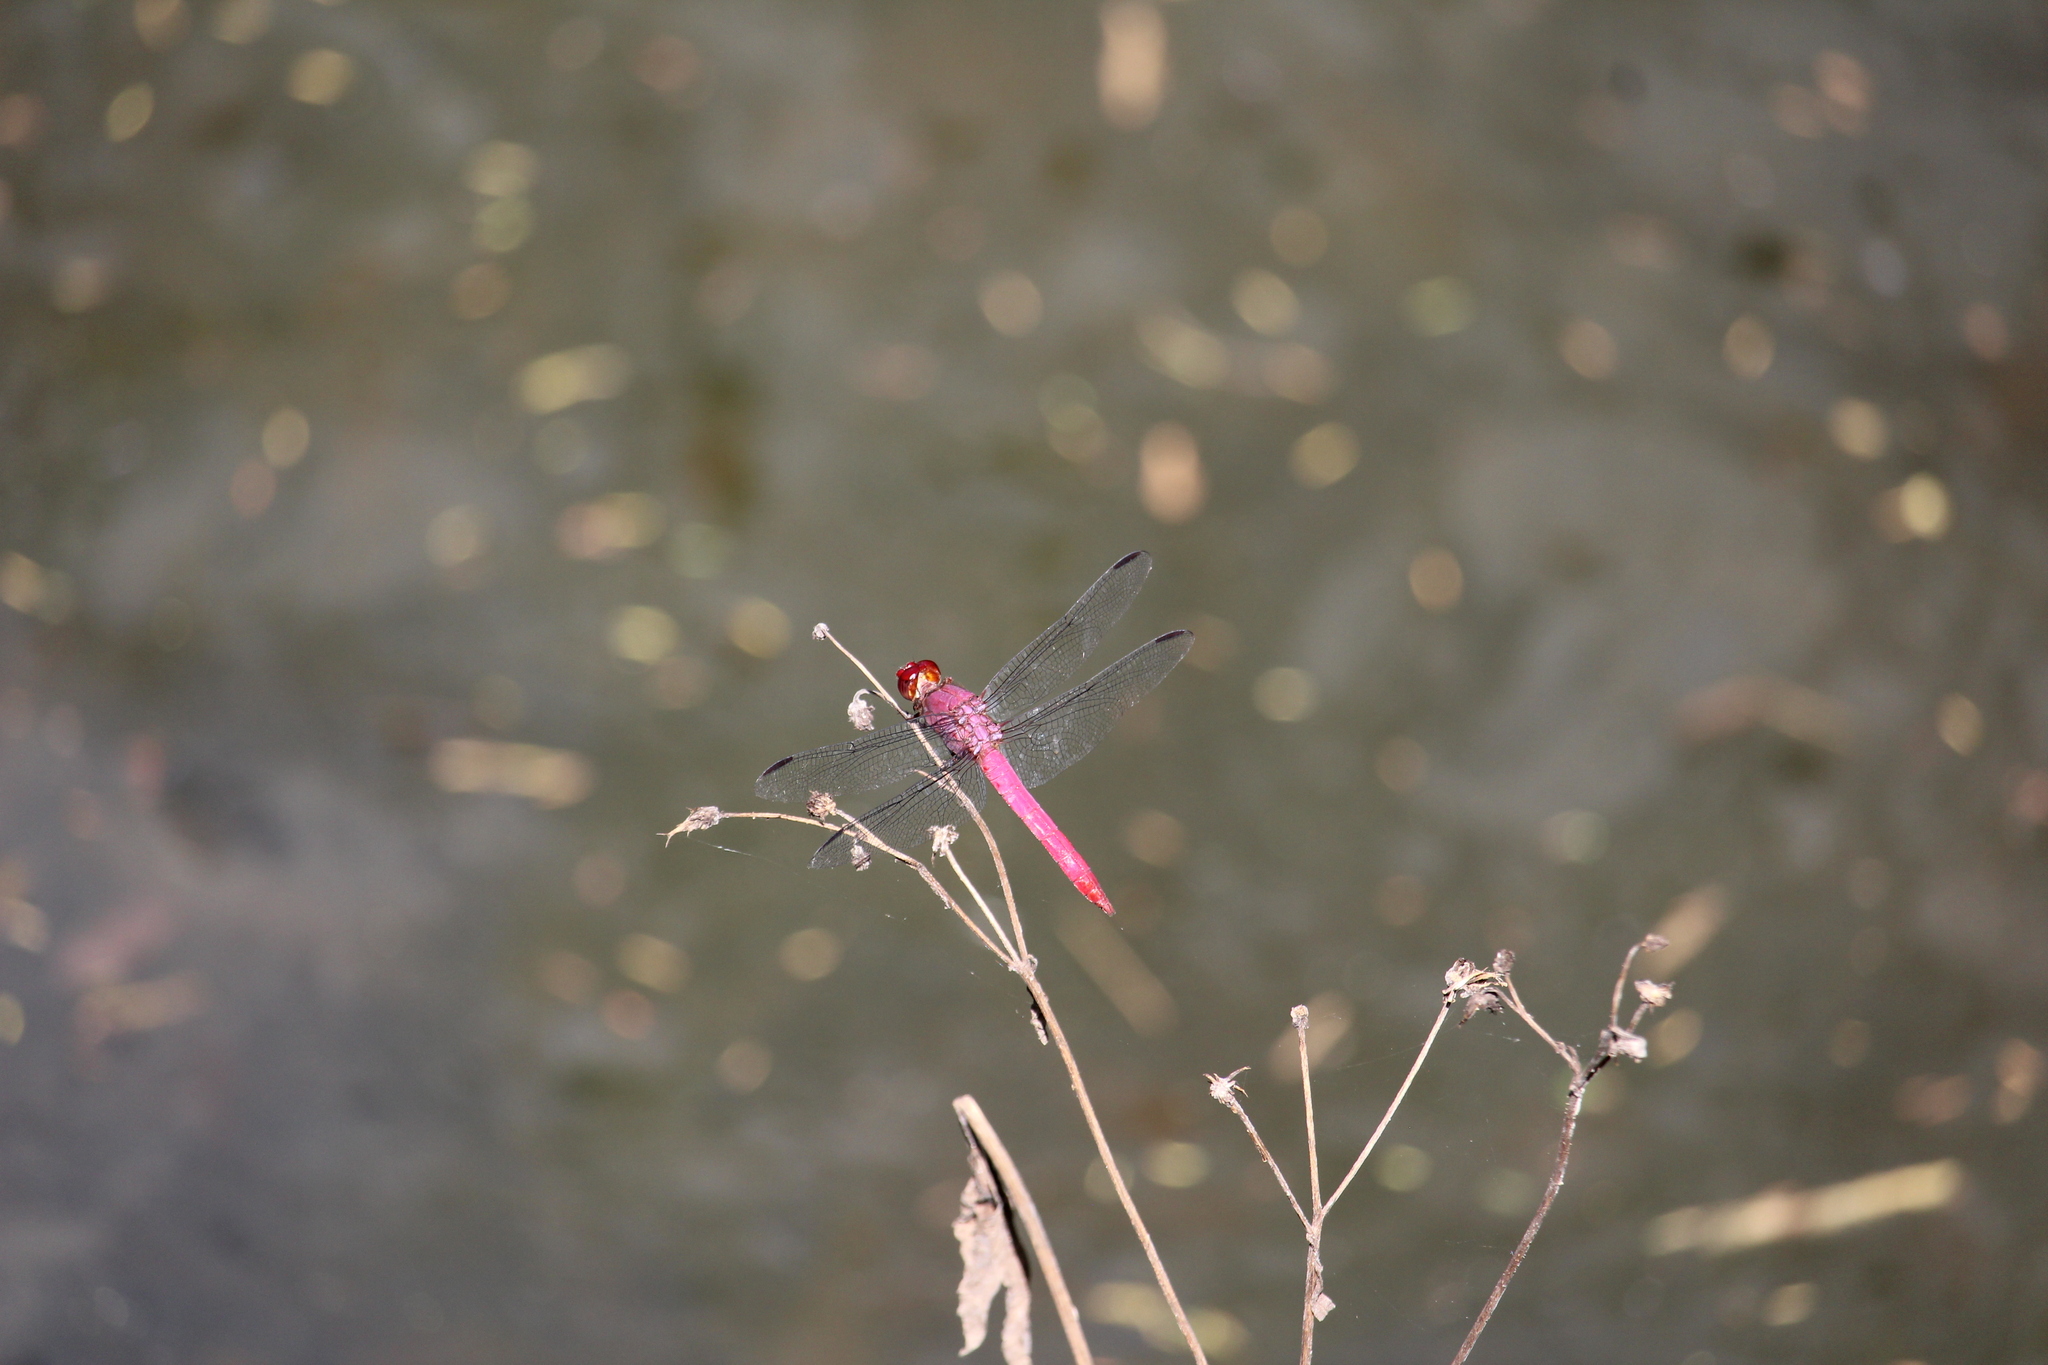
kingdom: Animalia
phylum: Arthropoda
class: Insecta
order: Odonata
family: Libellulidae
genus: Orthemis
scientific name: Orthemis discolor
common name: Carmine skimmer
